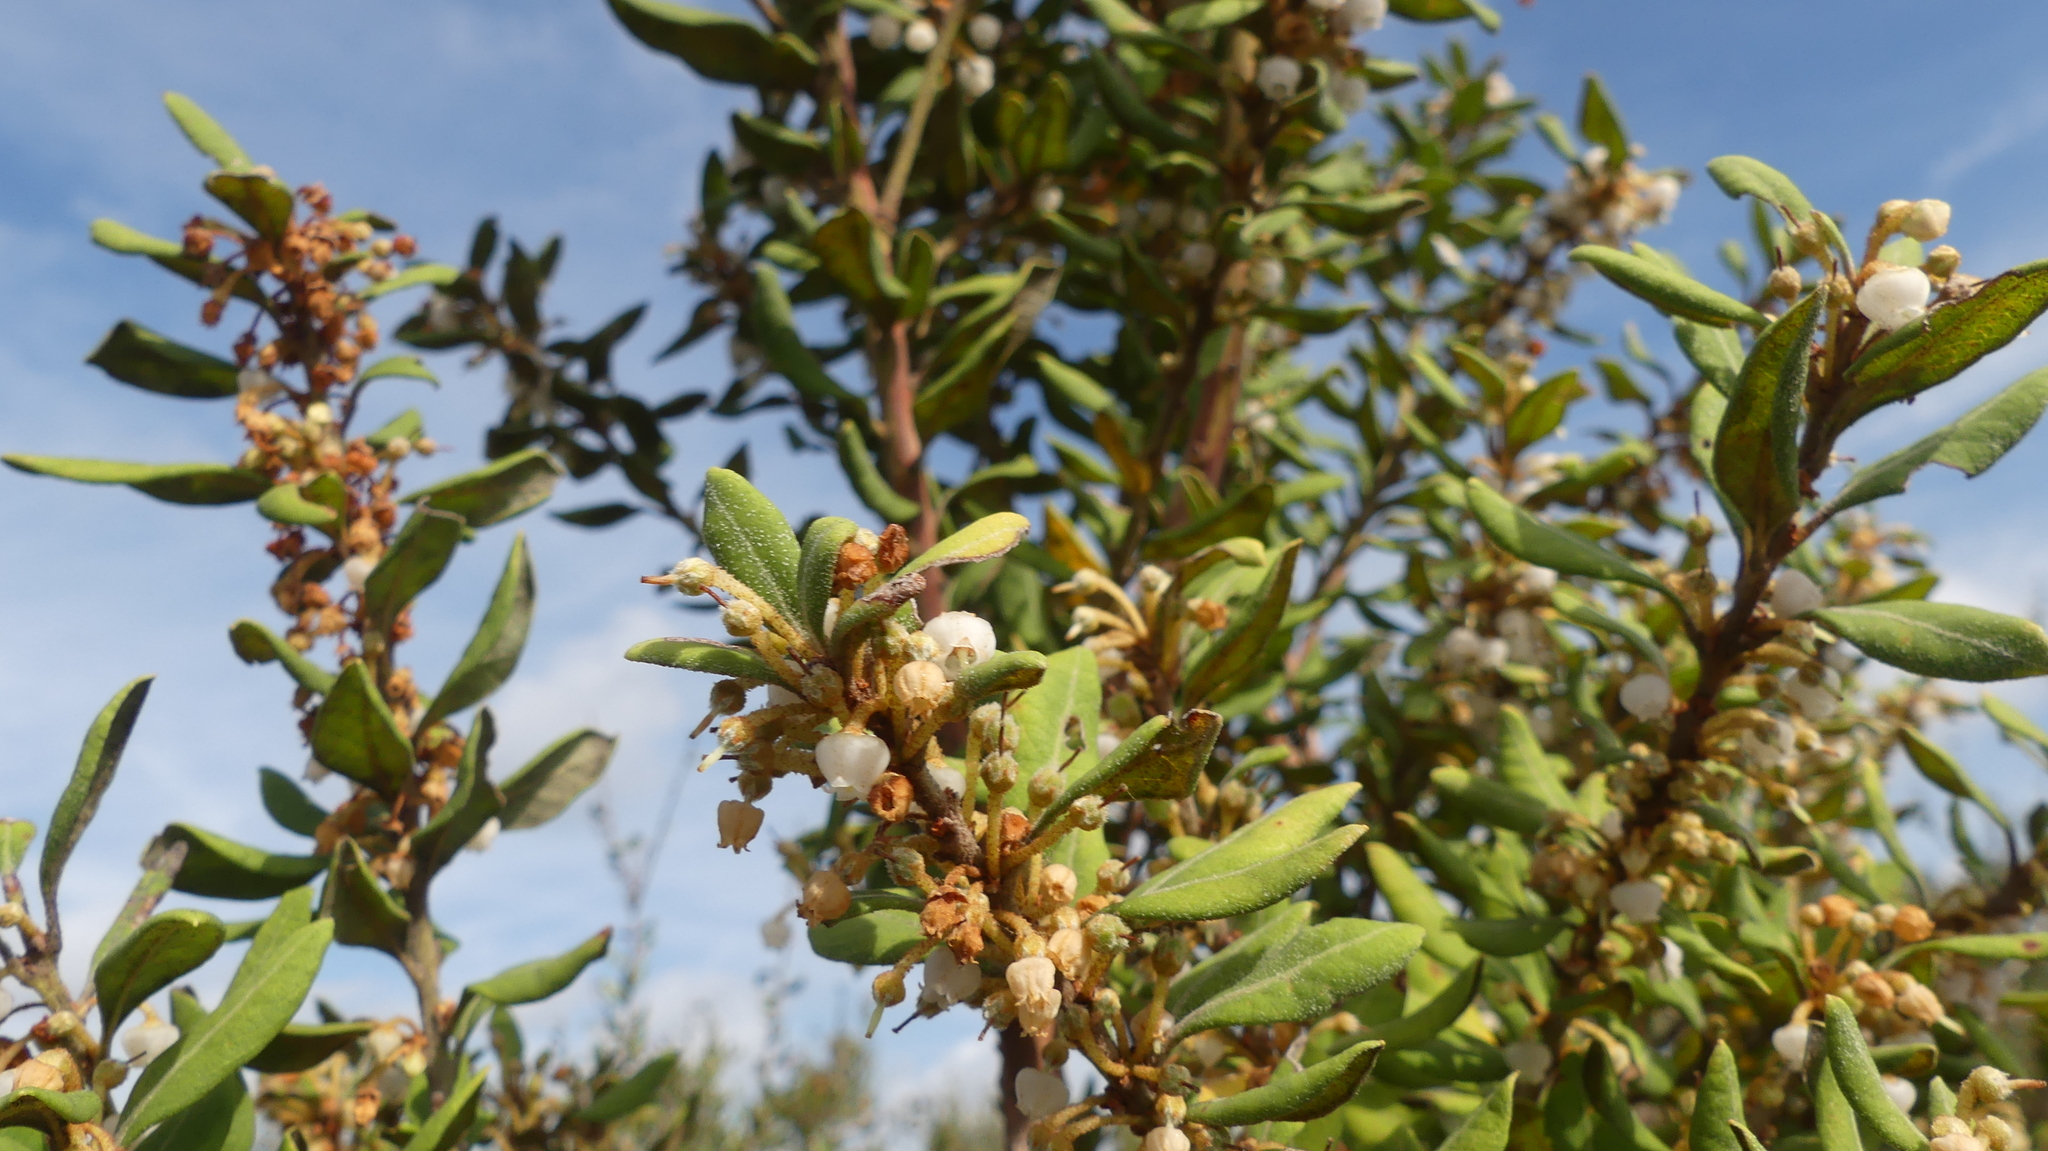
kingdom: Plantae
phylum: Tracheophyta
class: Magnoliopsida
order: Ericales
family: Ericaceae
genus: Lyonia
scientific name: Lyonia ferruginea
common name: Rusty lyonia
